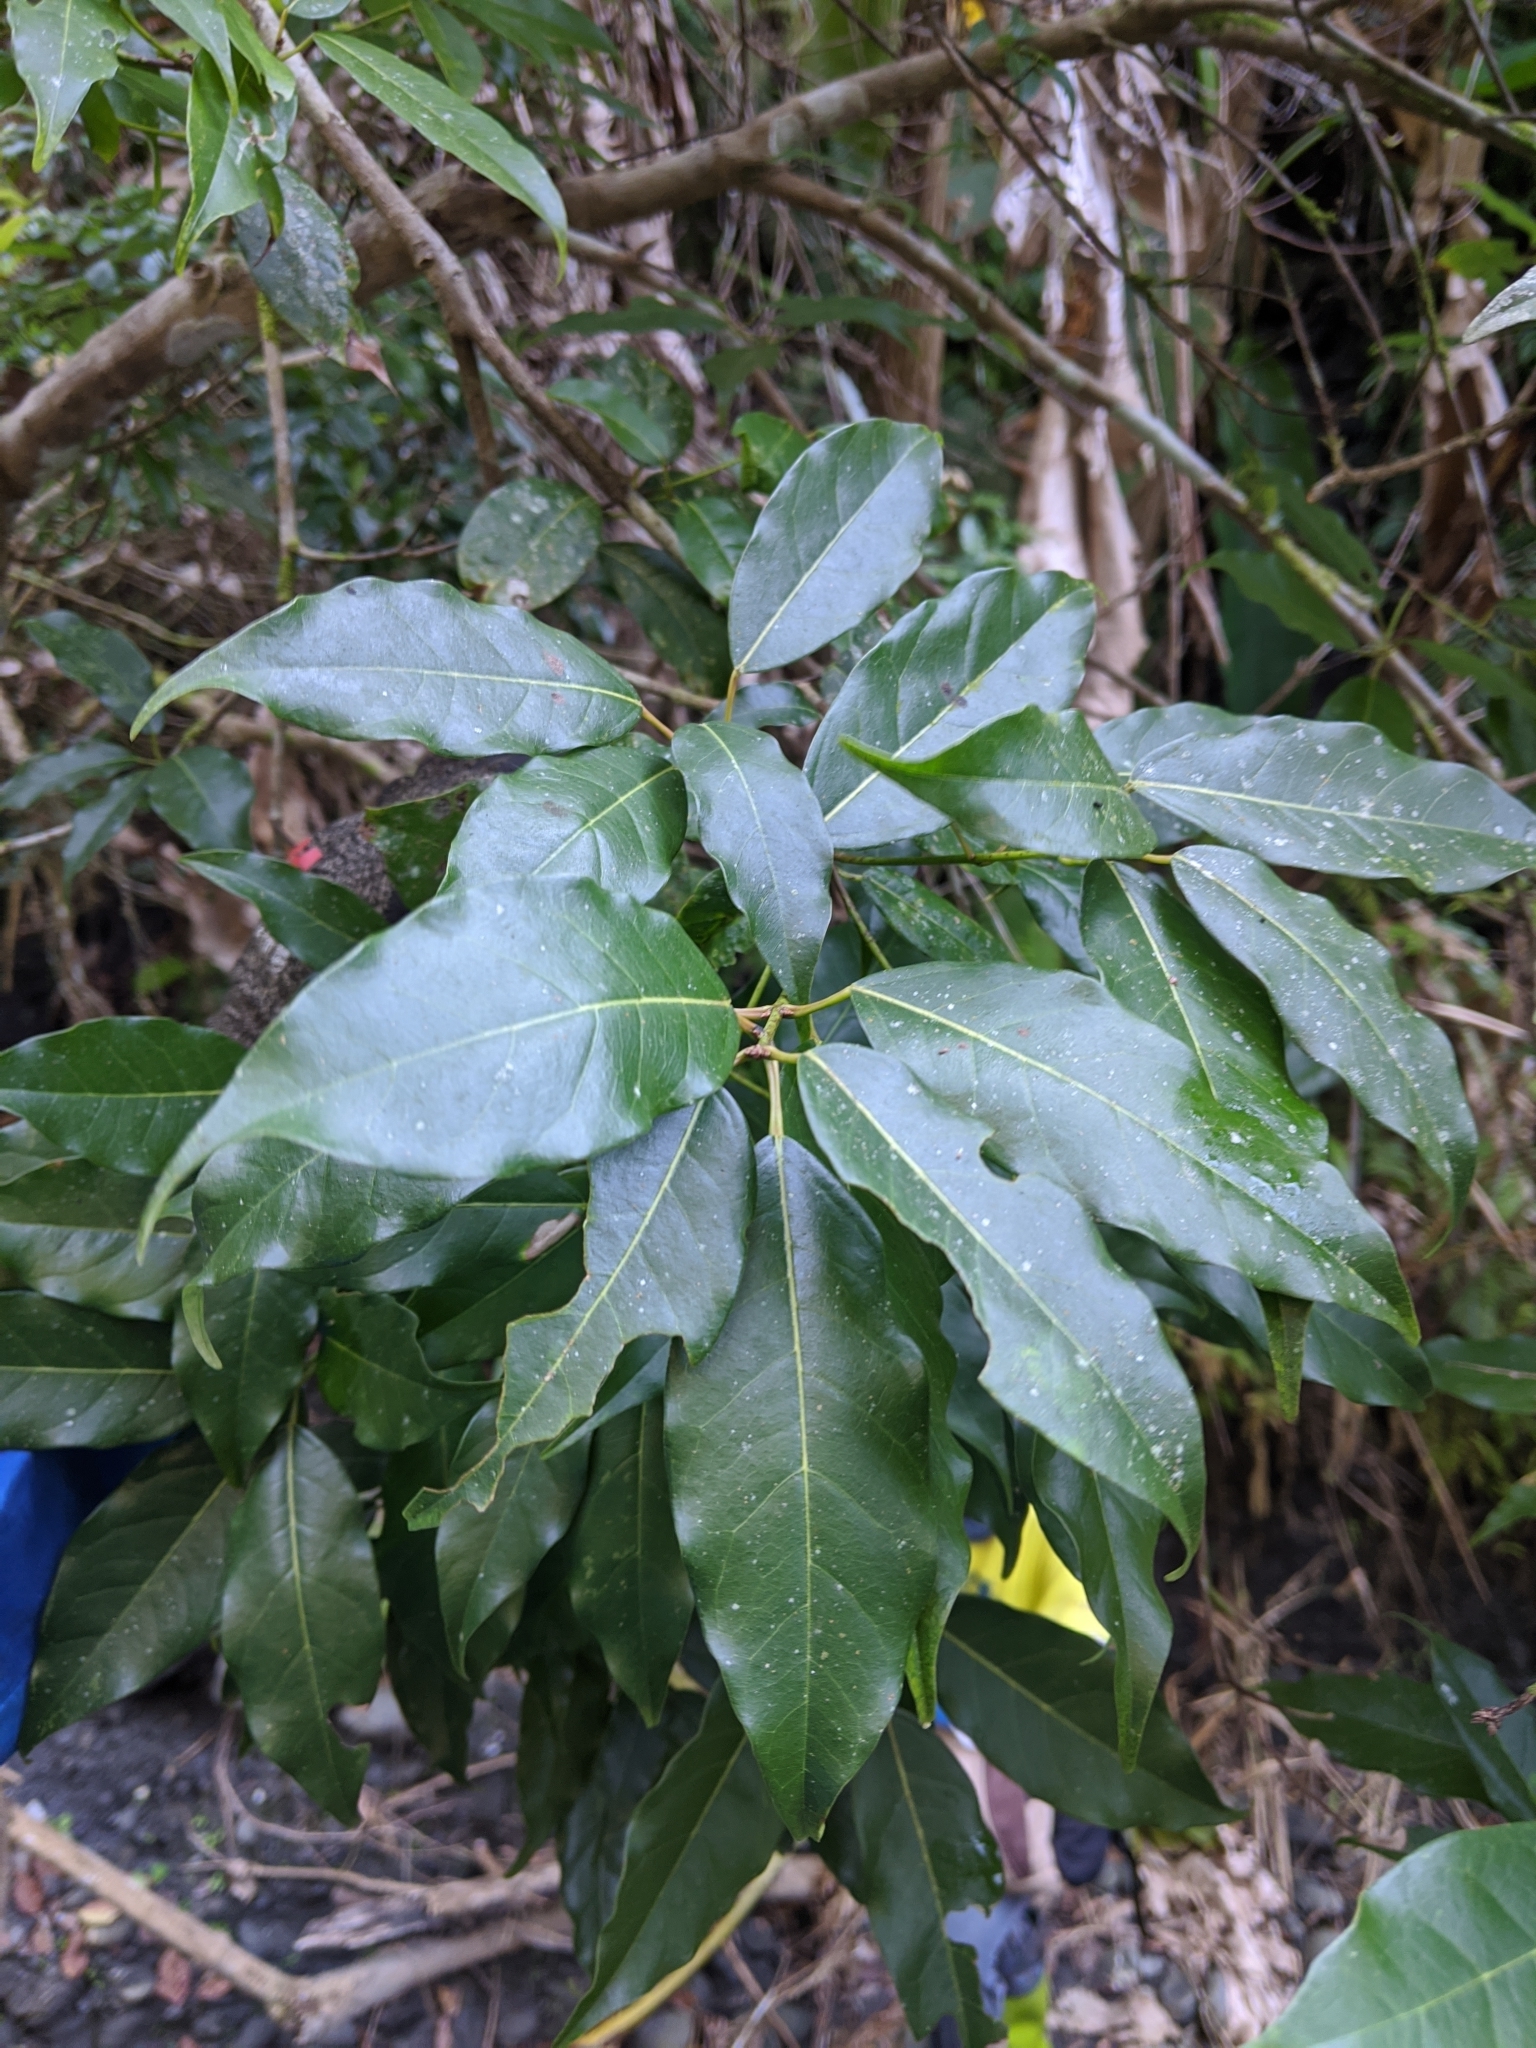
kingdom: Plantae
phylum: Tracheophyta
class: Magnoliopsida
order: Sapindales
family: Sapindaceae
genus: Acer
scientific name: Acer oblongum
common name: Himalayan maple
